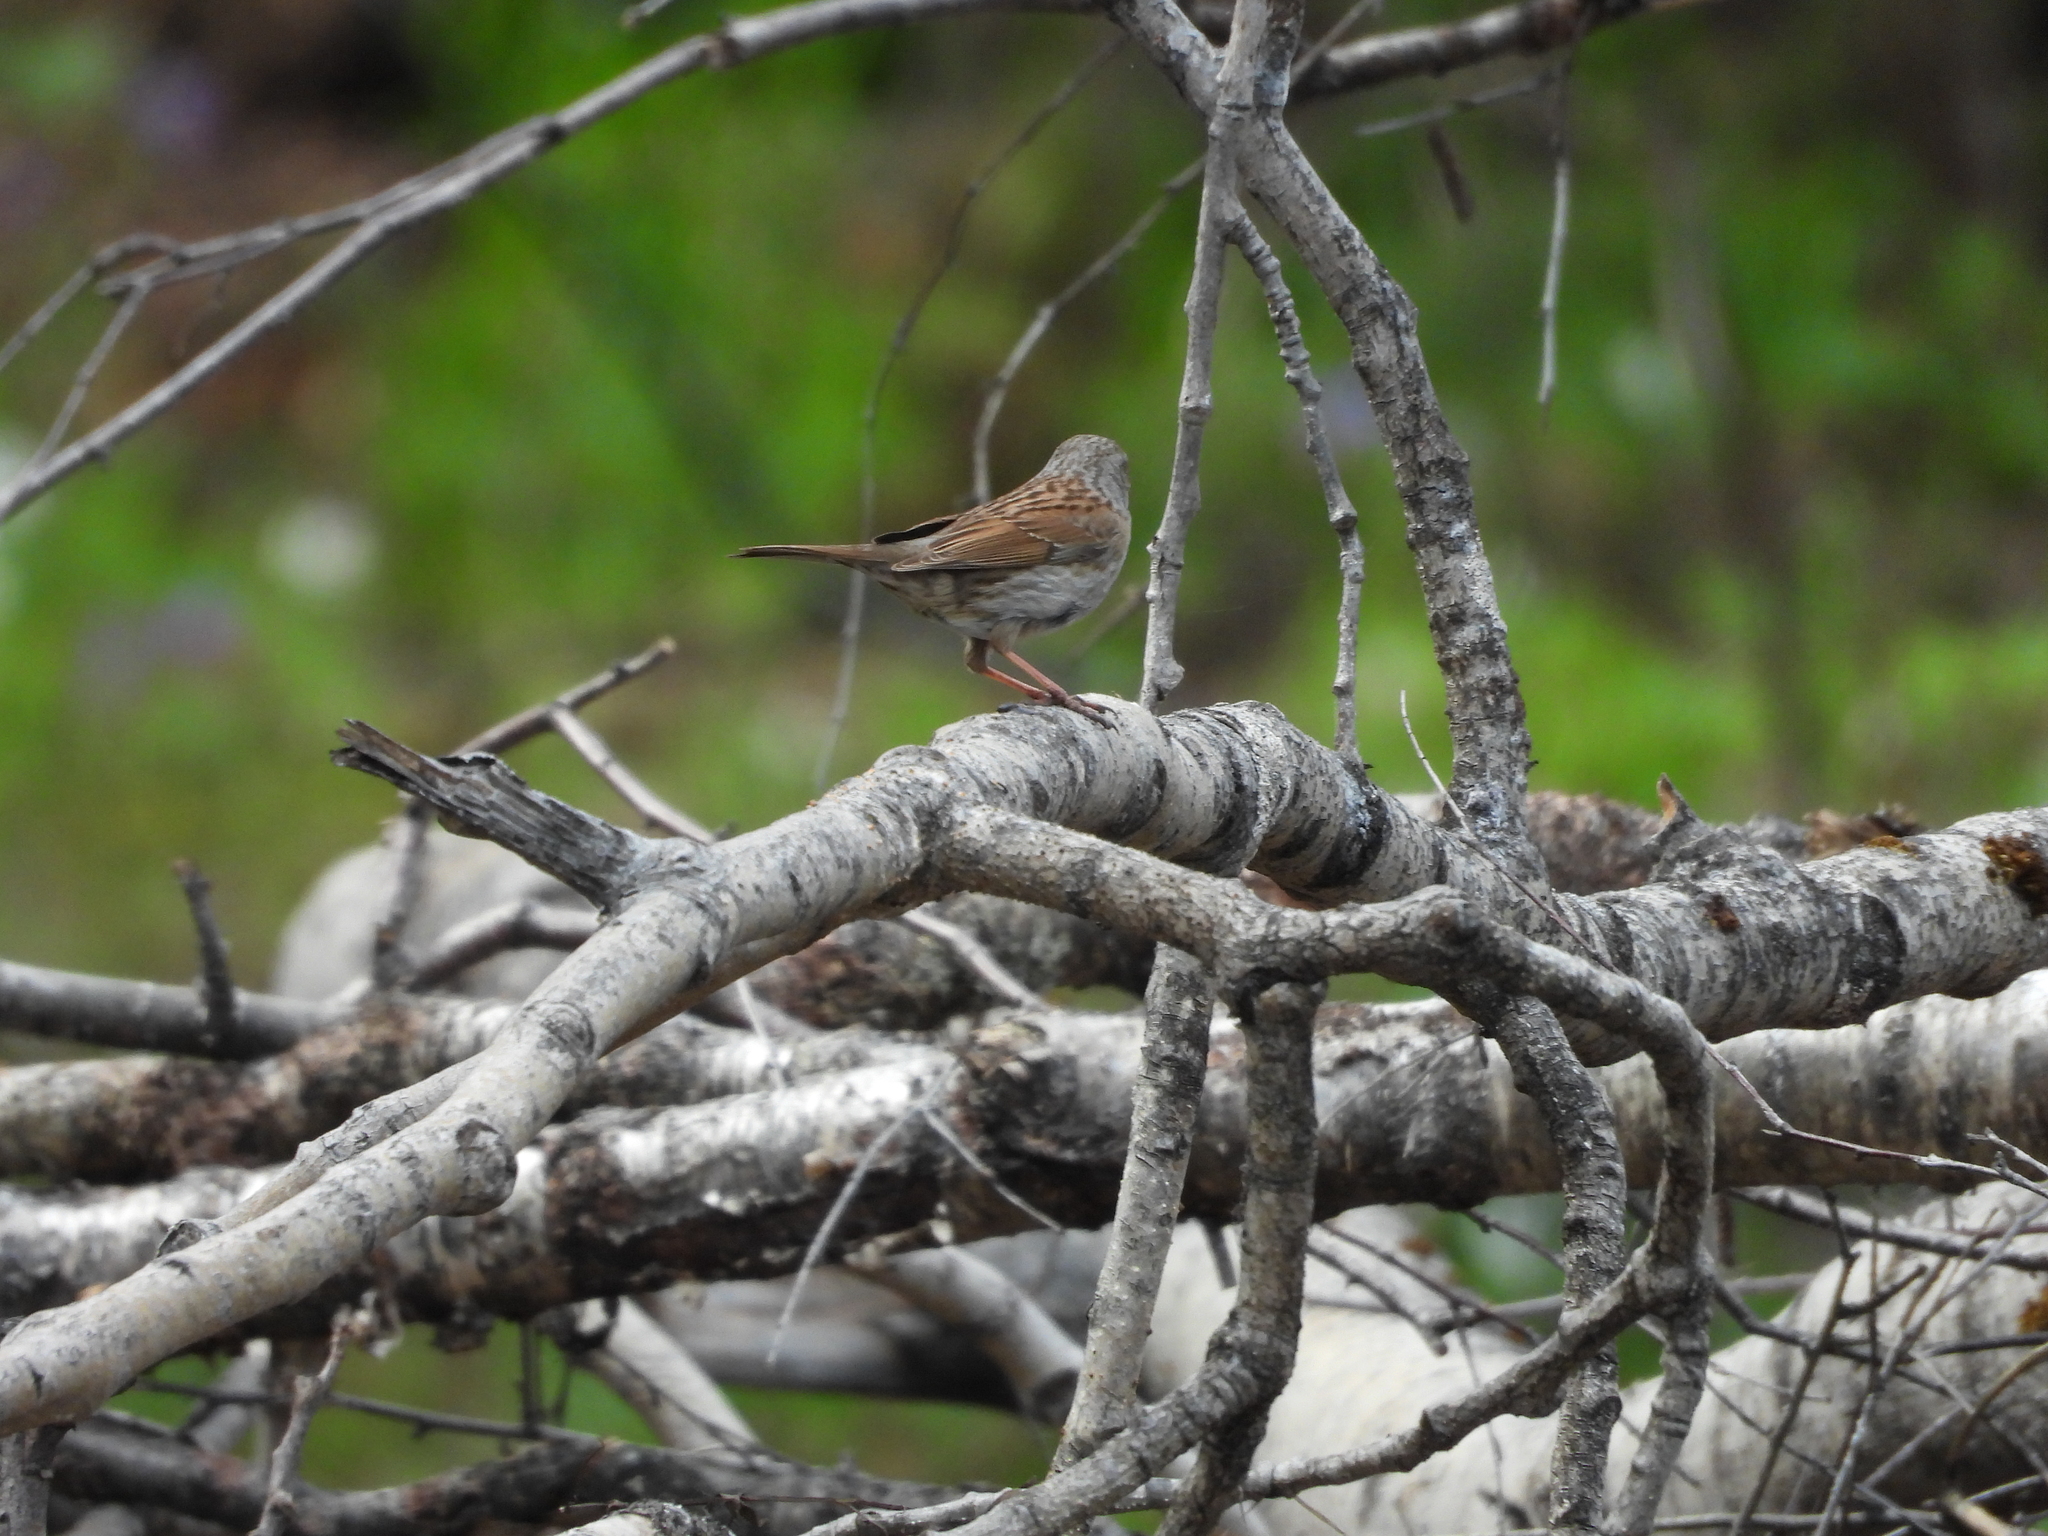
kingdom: Animalia
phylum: Chordata
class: Aves
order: Passeriformes
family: Prunellidae
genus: Prunella
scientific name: Prunella modularis
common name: Dunnock
